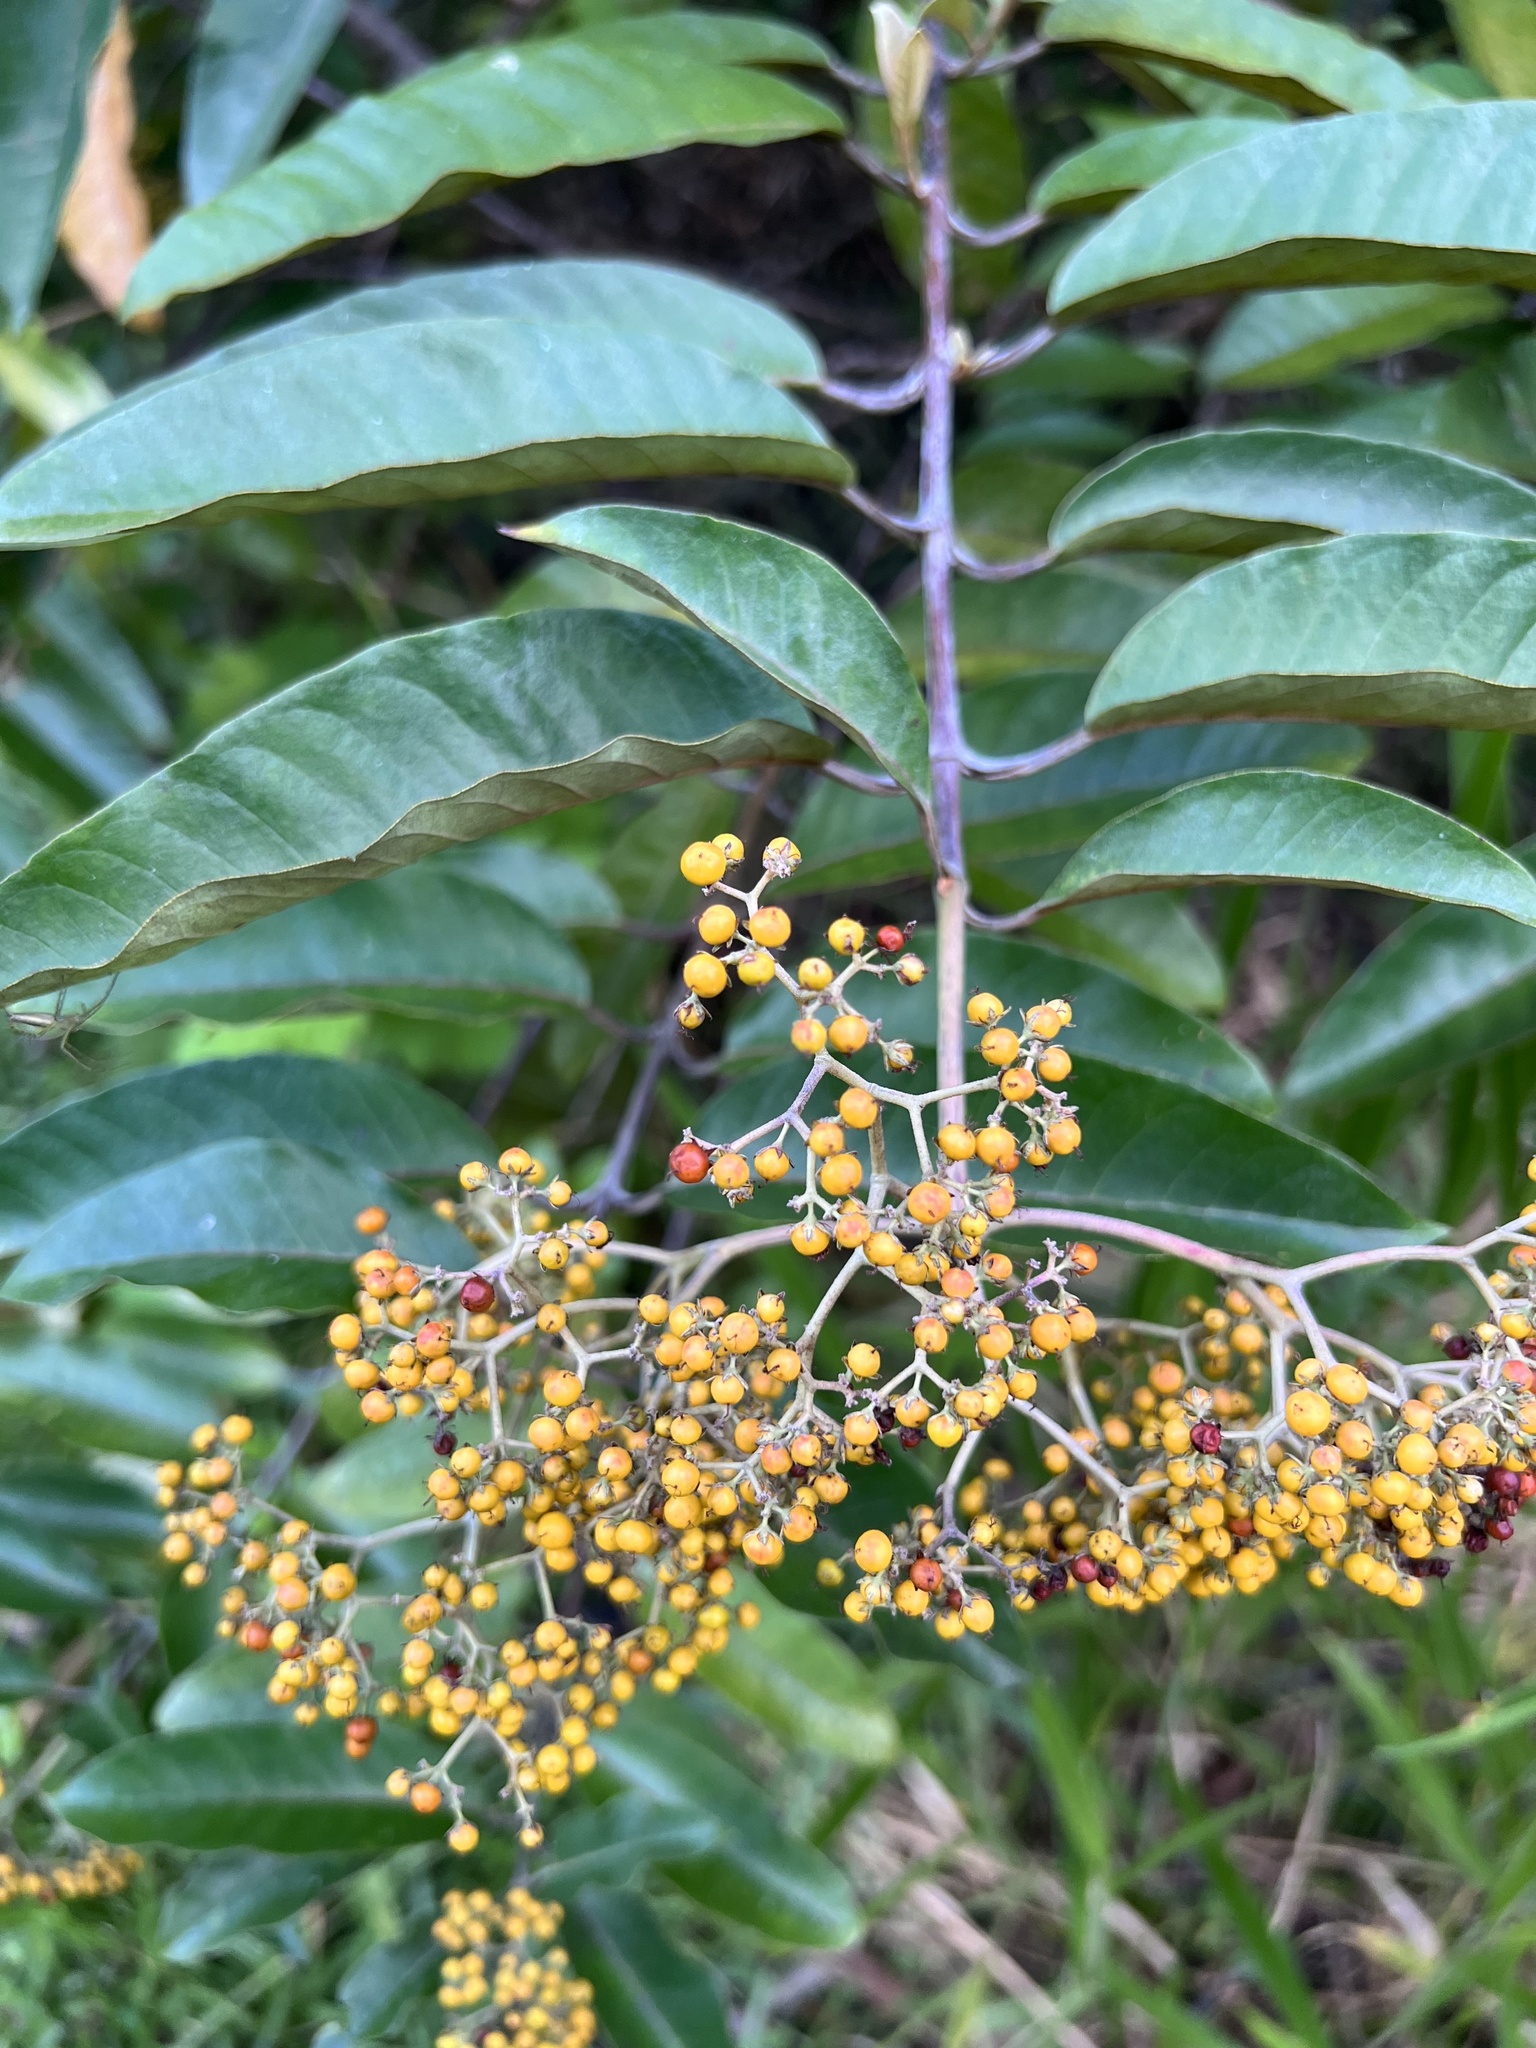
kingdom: Plantae
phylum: Tracheophyta
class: Magnoliopsida
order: Malpighiales
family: Hypericaceae
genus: Harungana
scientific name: Harungana madagascariensis
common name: Orange milktree
